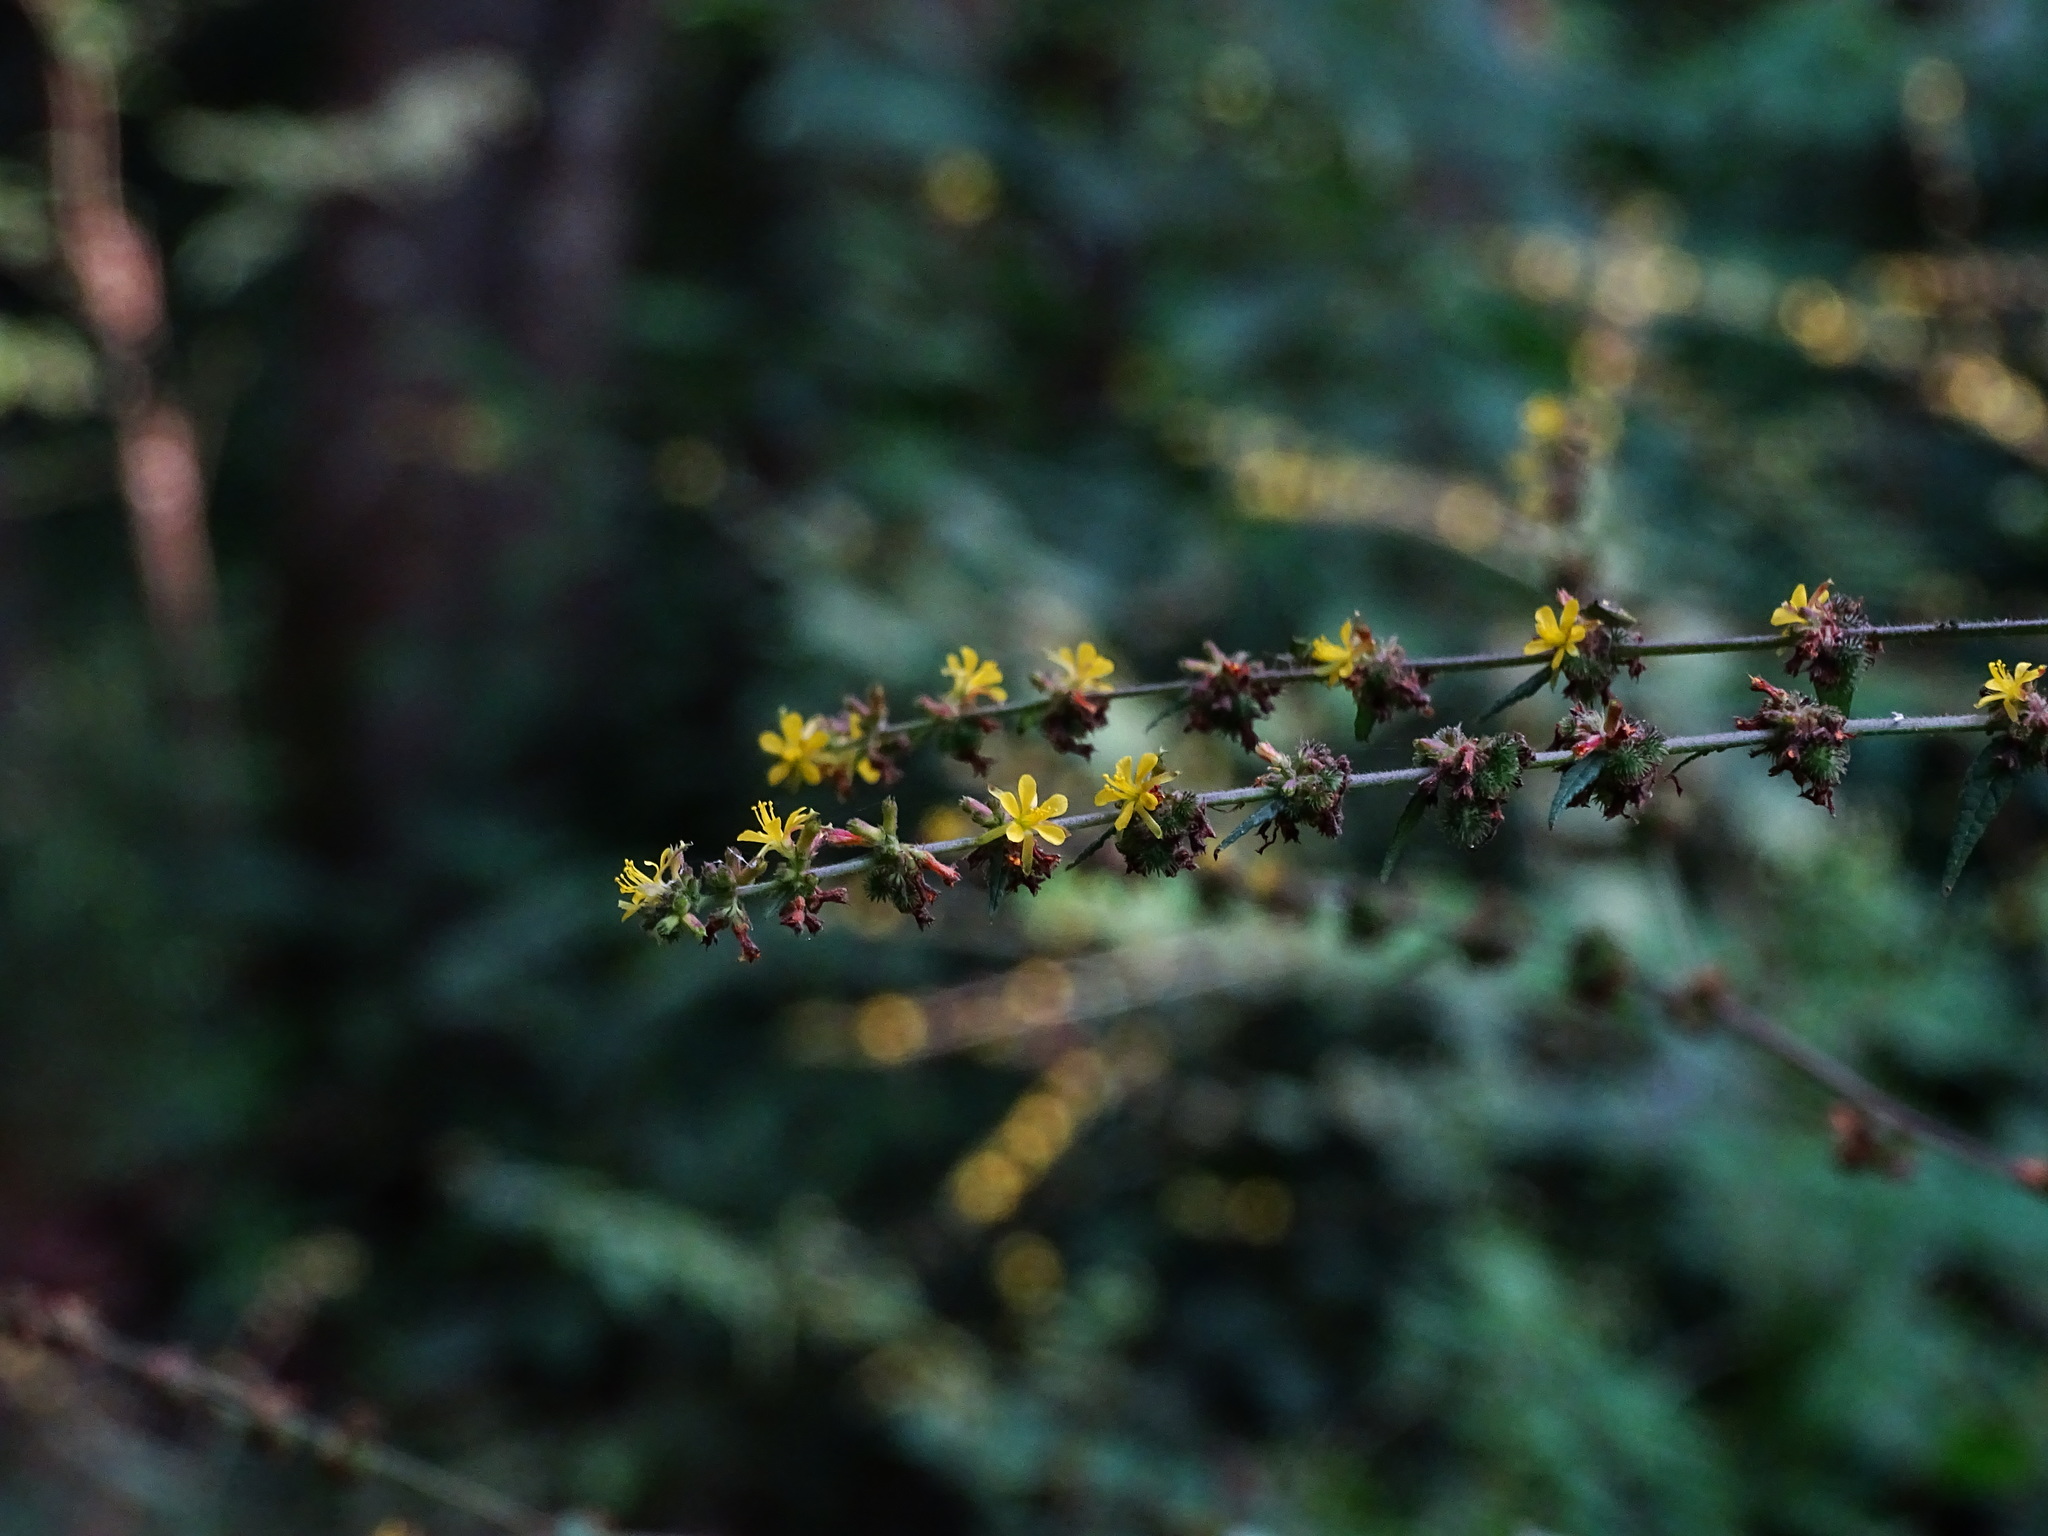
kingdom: Plantae
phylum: Tracheophyta
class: Magnoliopsida
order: Malvales
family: Malvaceae
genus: Triumfetta
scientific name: Triumfetta rhomboidea
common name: Diamond burbark
